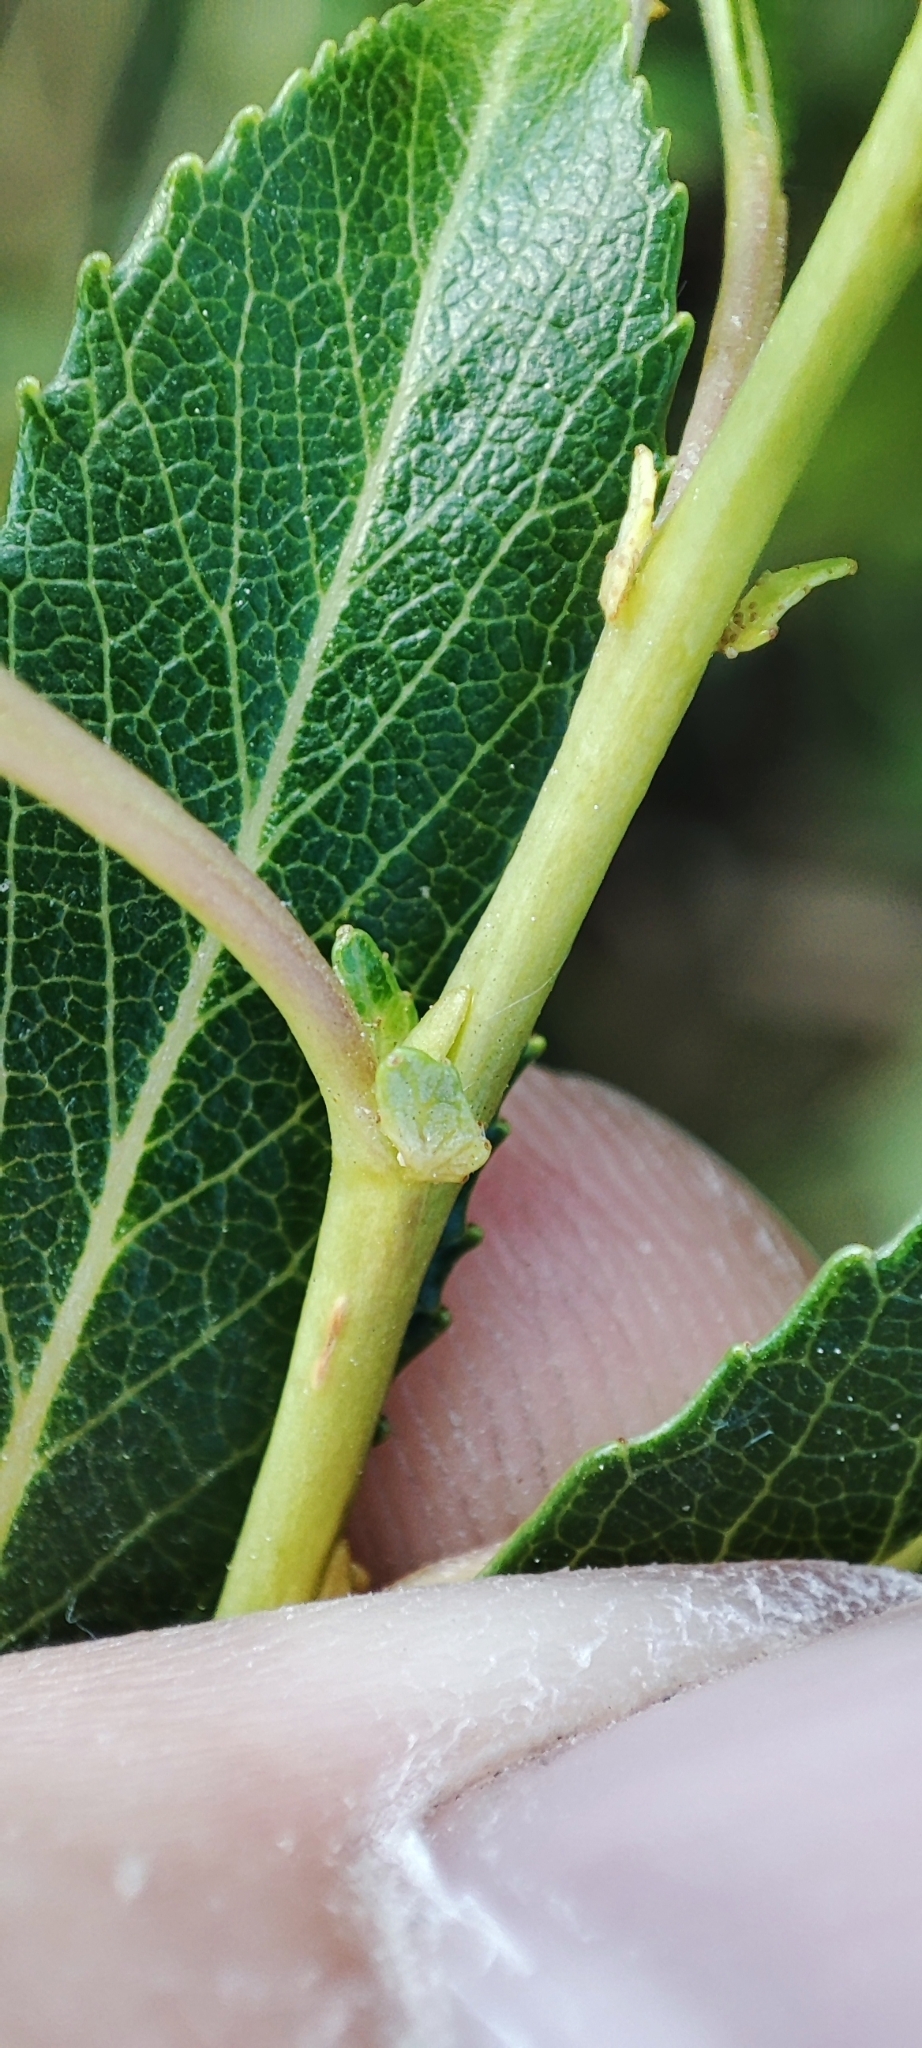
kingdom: Plantae
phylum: Tracheophyta
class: Magnoliopsida
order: Malpighiales
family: Salicaceae
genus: Salix
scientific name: Salix triandra
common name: Almond willow
